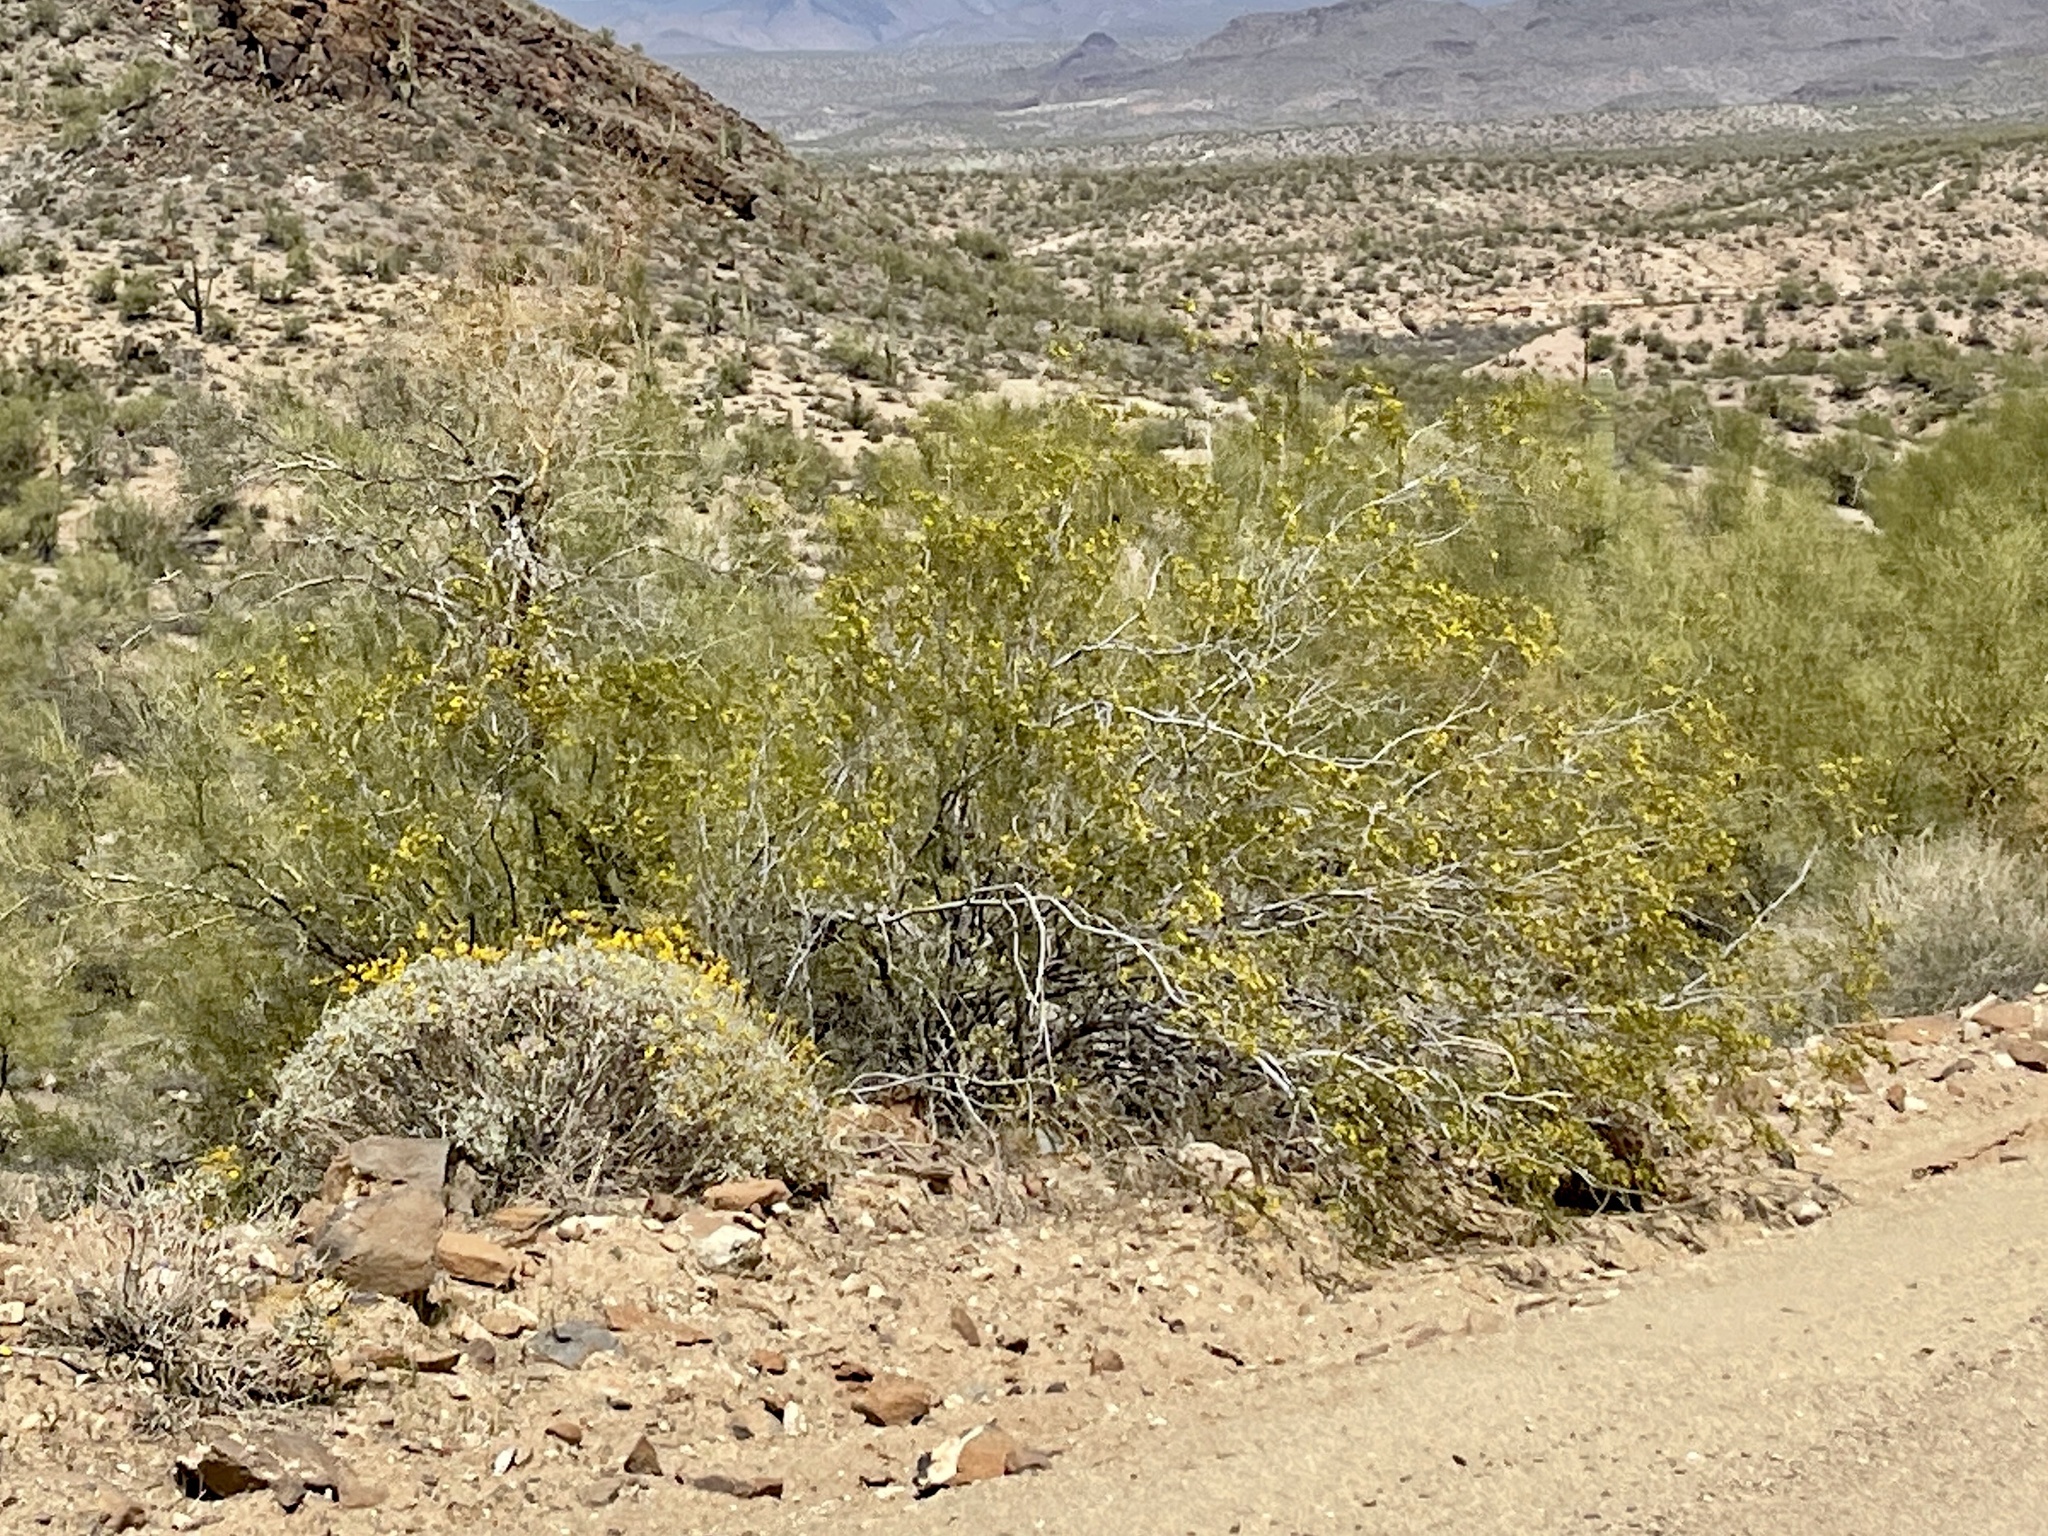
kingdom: Plantae
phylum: Tracheophyta
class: Magnoliopsida
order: Zygophyllales
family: Zygophyllaceae
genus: Larrea
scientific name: Larrea tridentata
